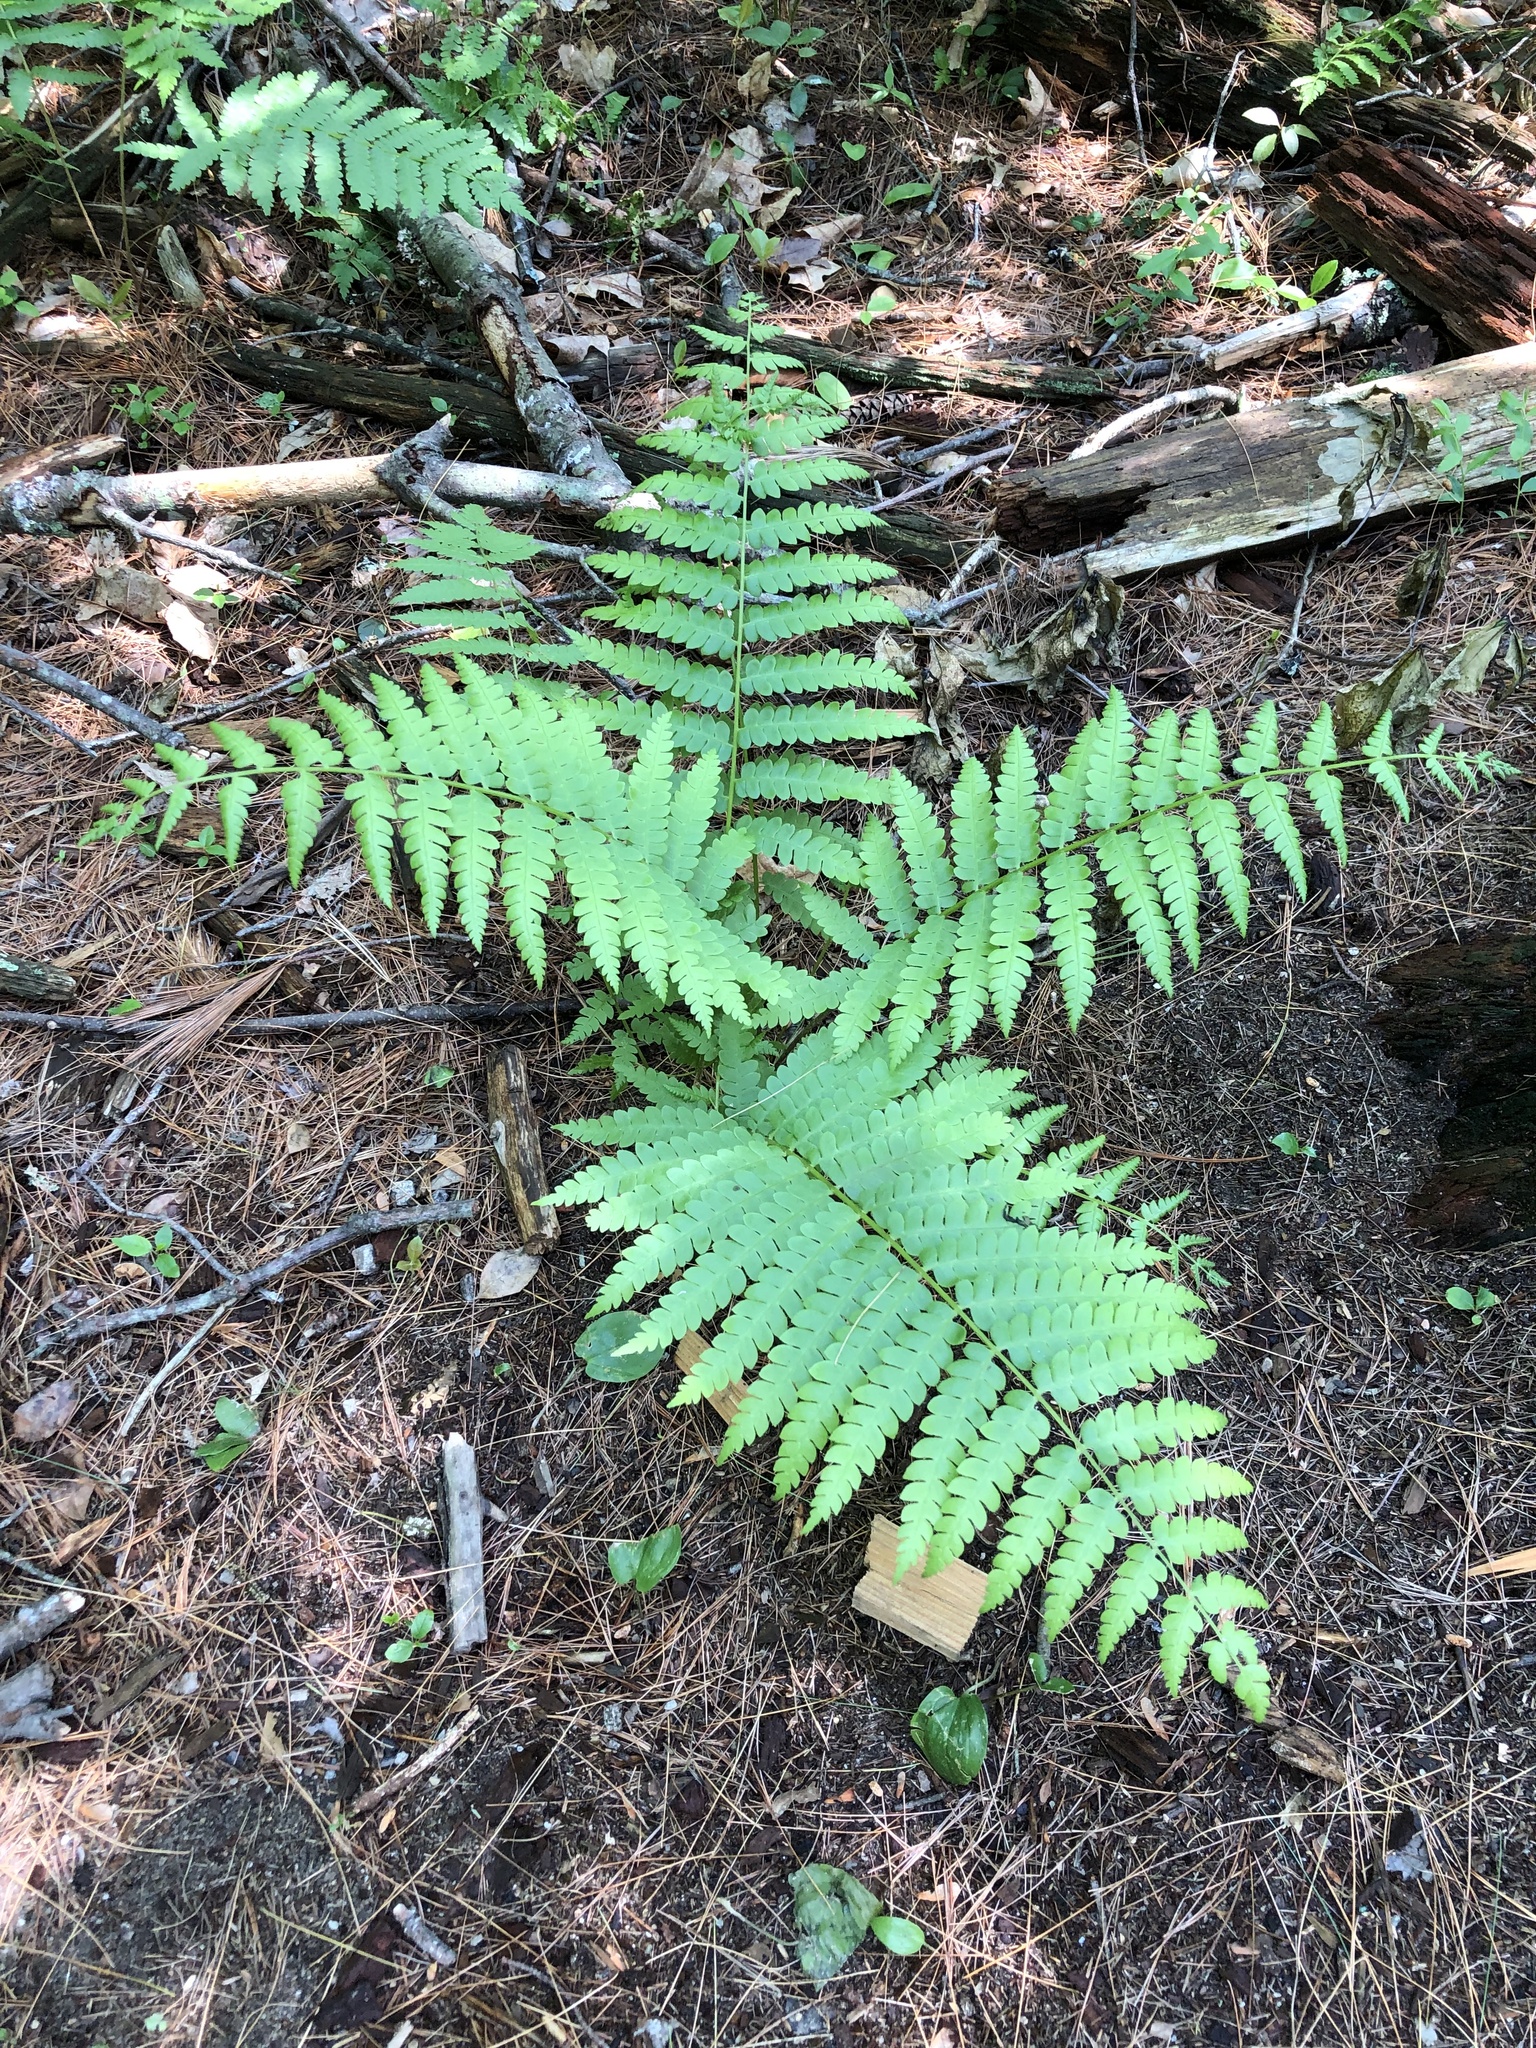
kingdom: Plantae
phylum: Tracheophyta
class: Polypodiopsida
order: Osmundales
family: Osmundaceae
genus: Osmundastrum
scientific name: Osmundastrum cinnamomeum
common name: Cinnamon fern
